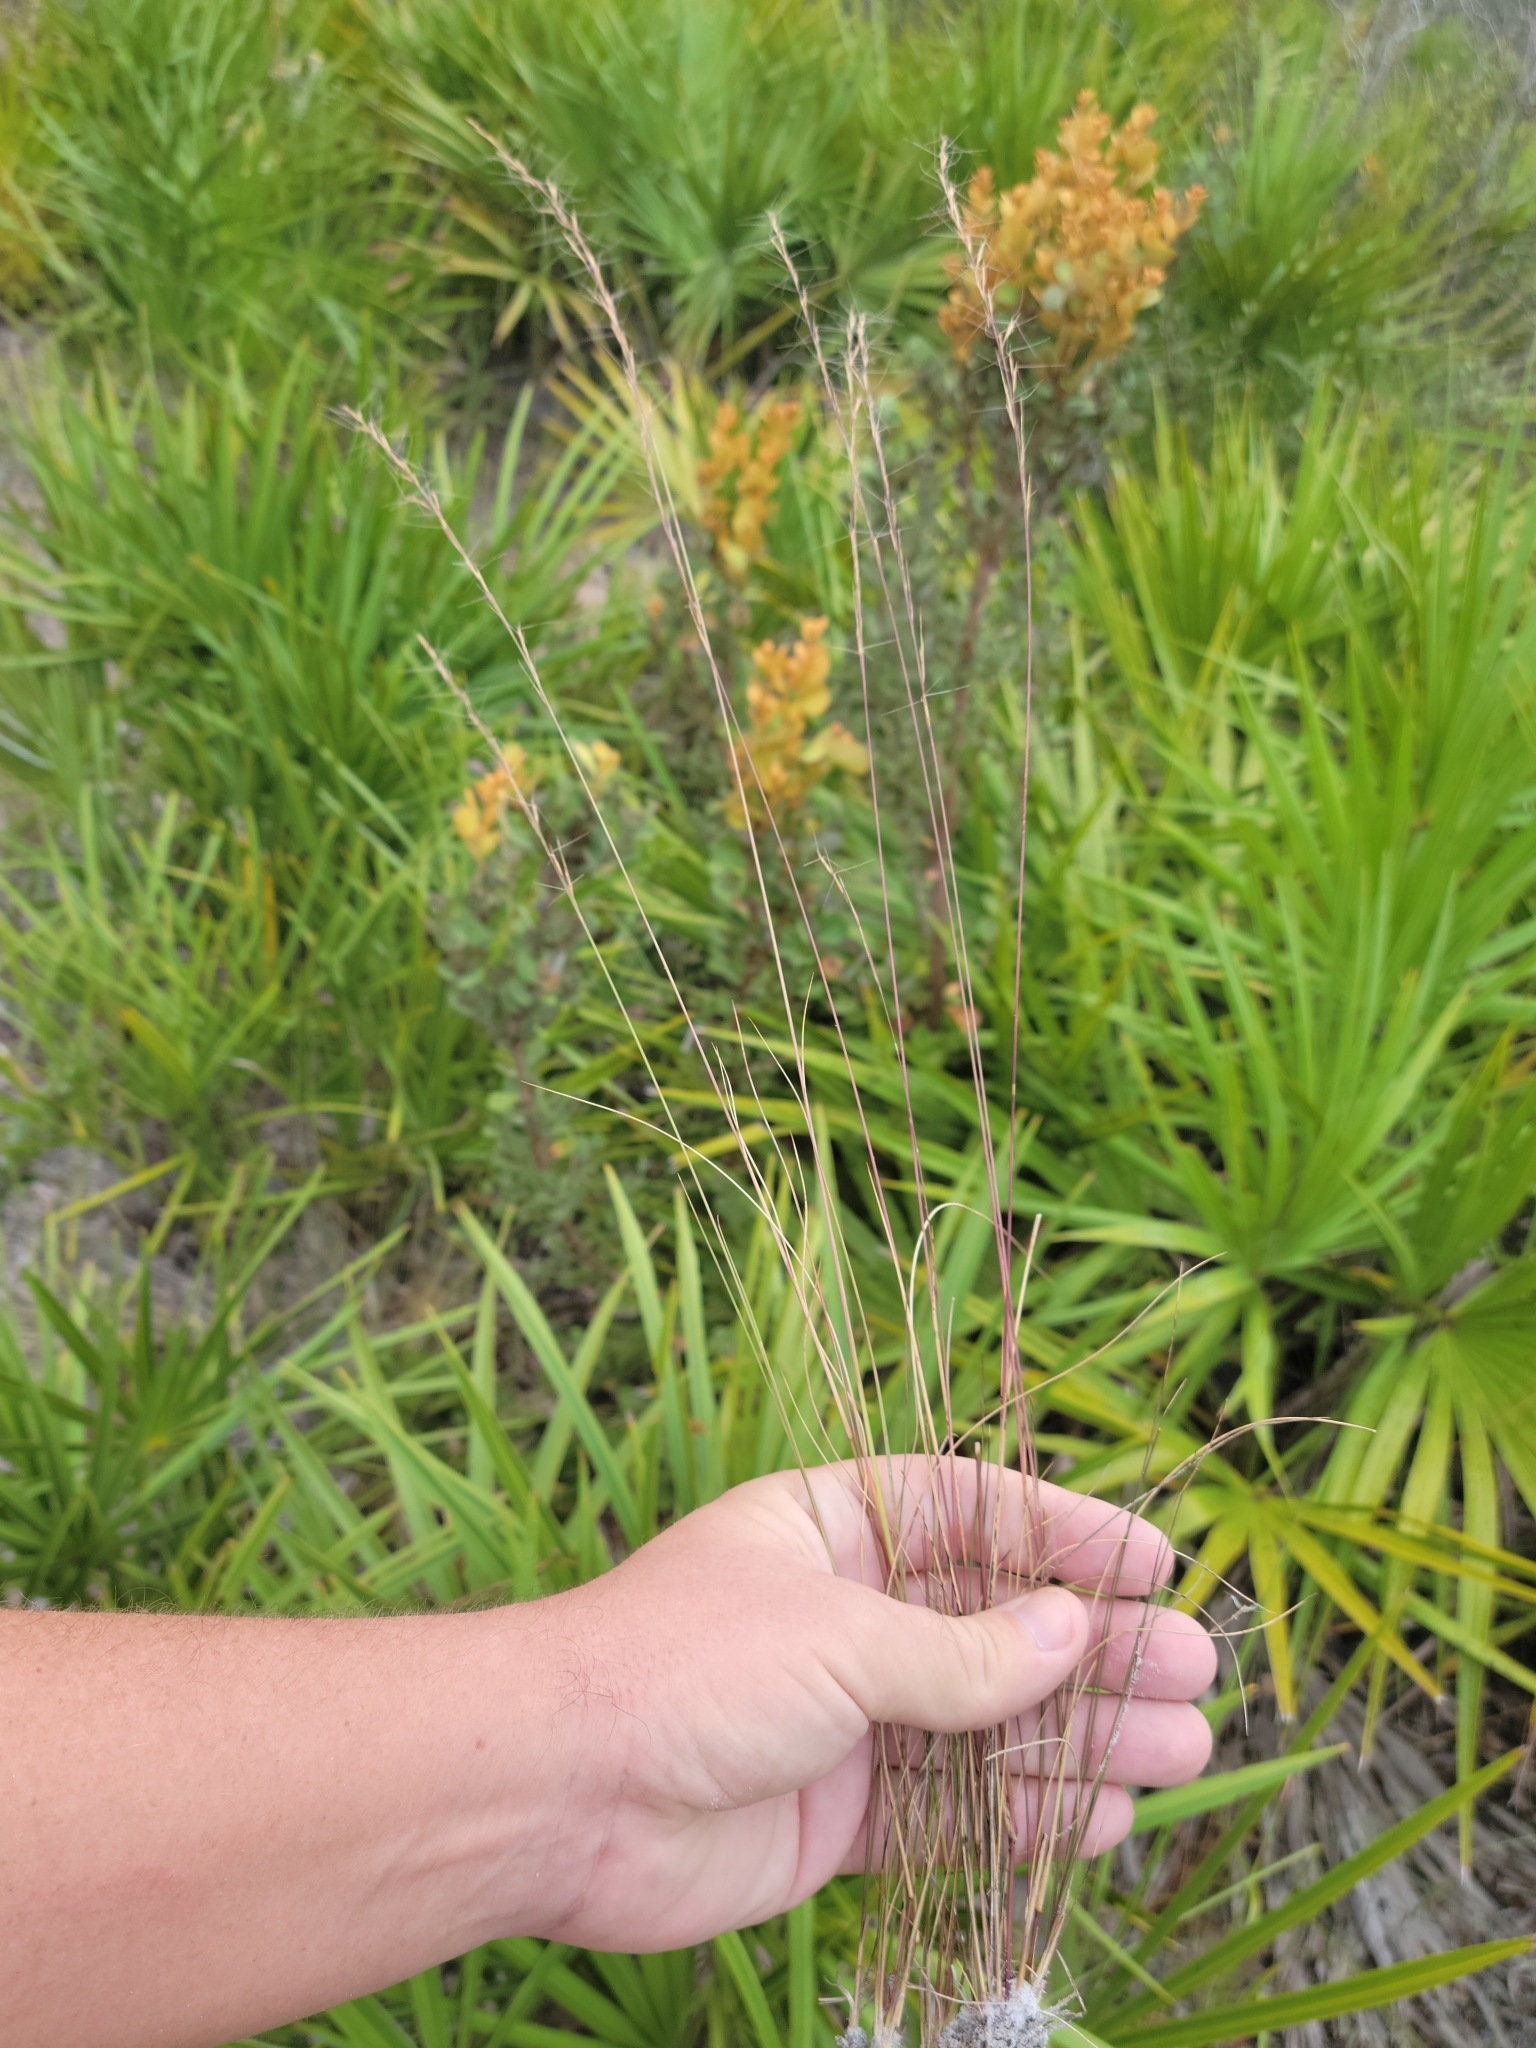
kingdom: Plantae
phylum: Tracheophyta
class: Liliopsida
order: Poales
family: Poaceae
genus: Aristida
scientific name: Aristida gyrans
